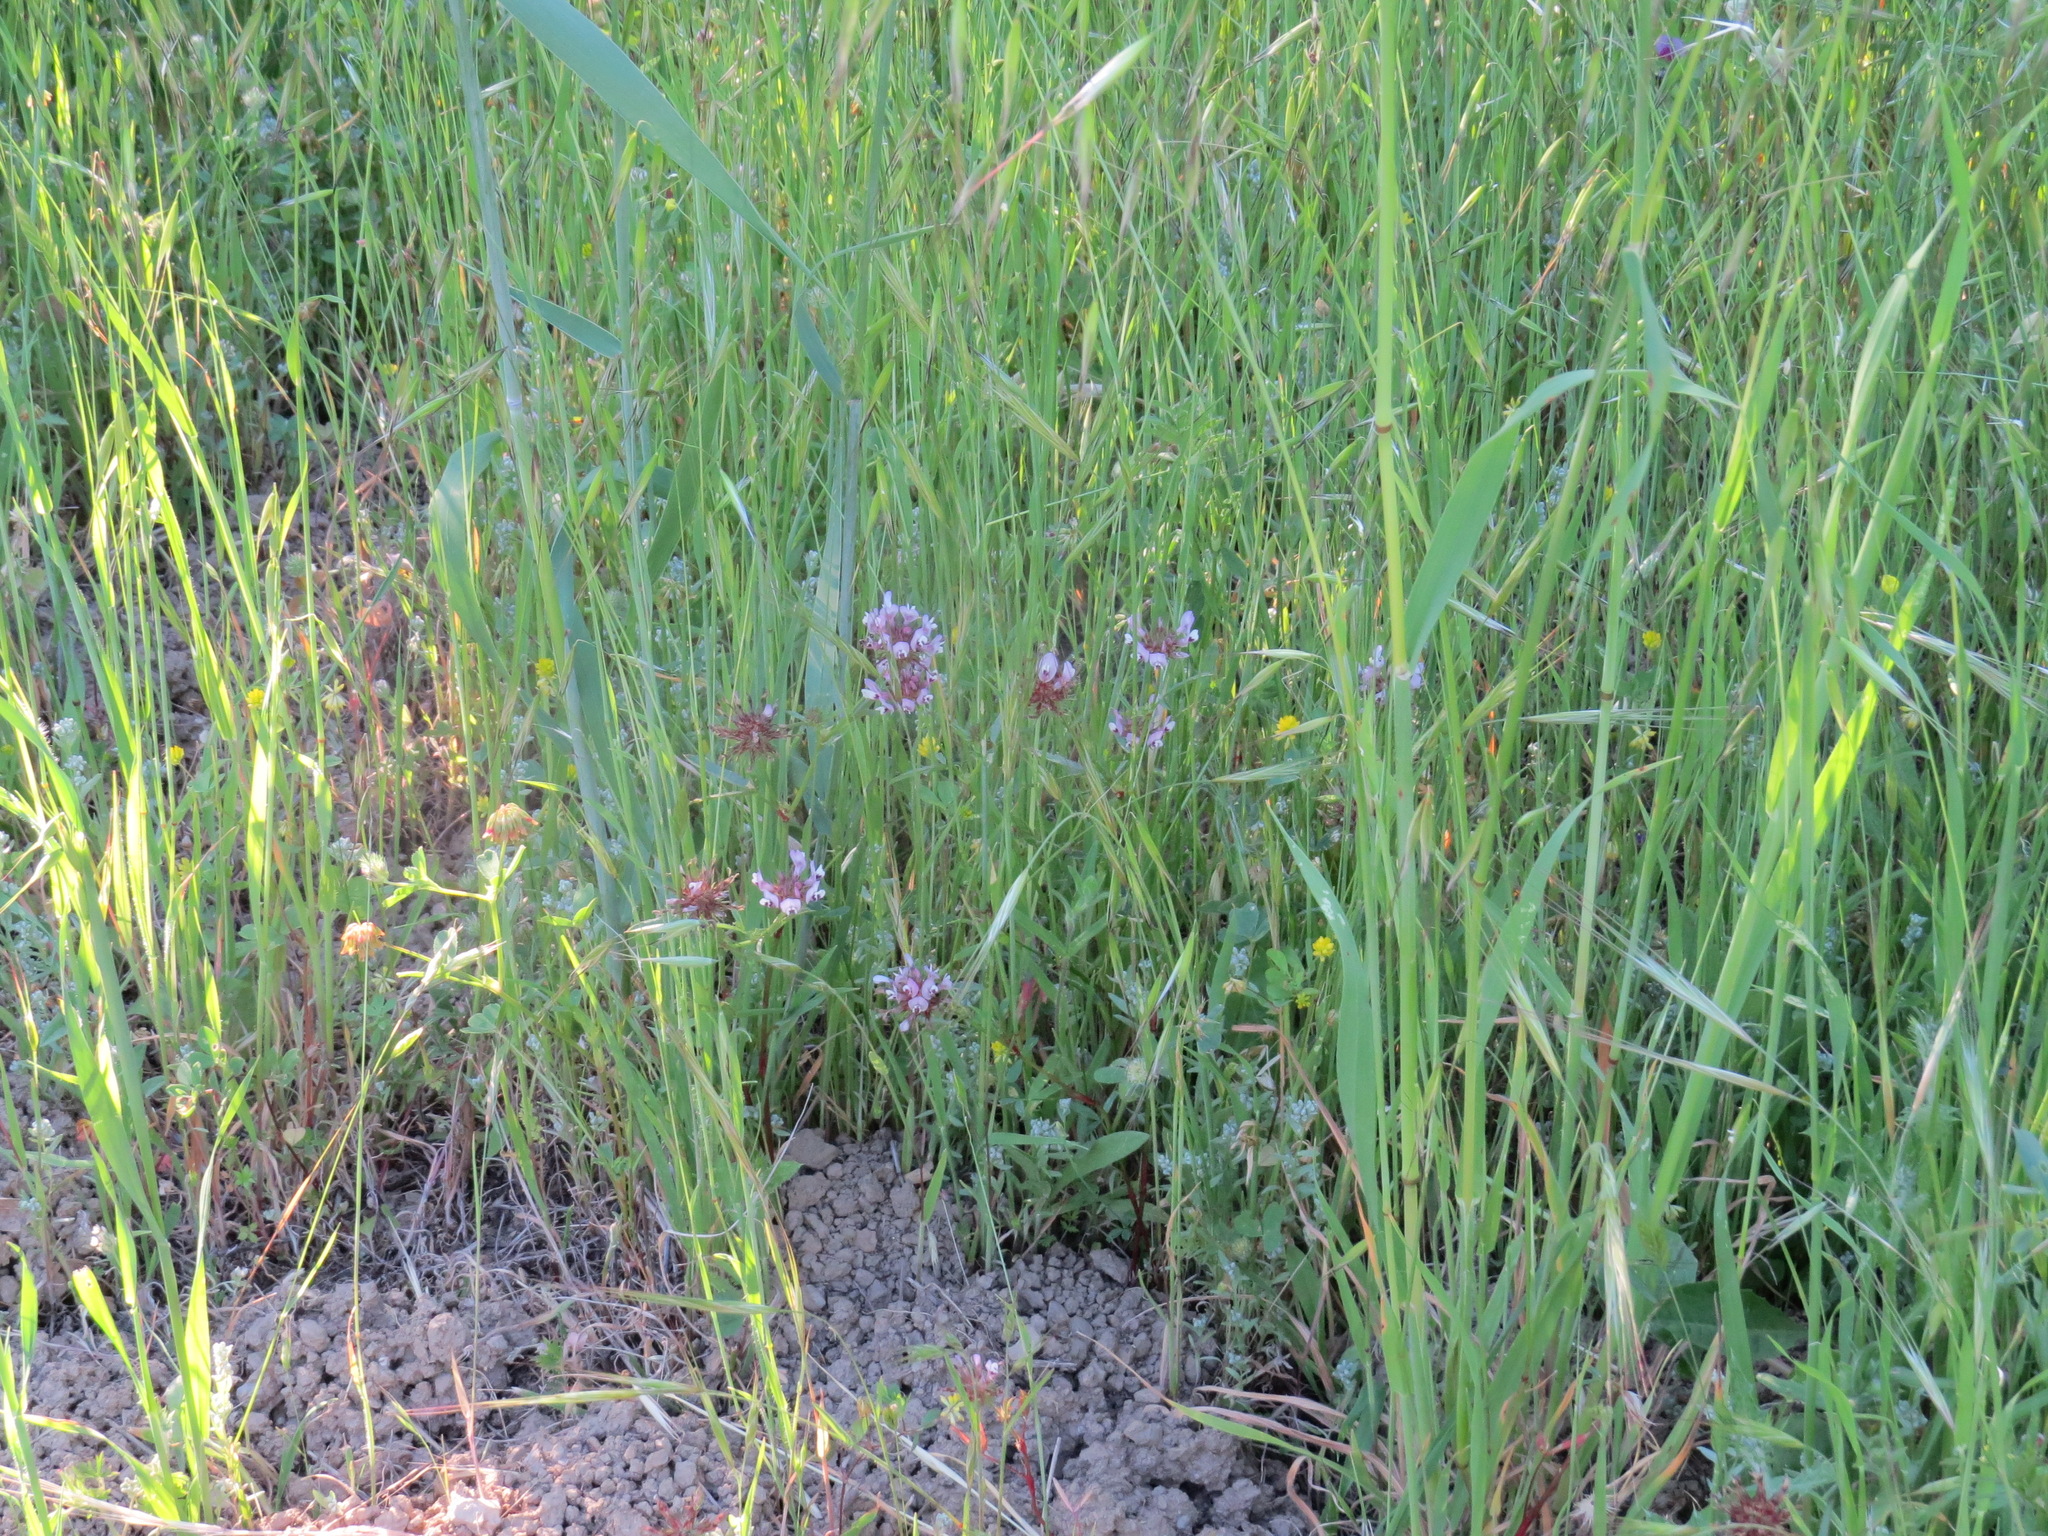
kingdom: Plantae
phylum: Tracheophyta
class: Magnoliopsida
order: Fabales
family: Fabaceae
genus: Trifolium
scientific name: Trifolium willdenovii
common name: Tomcat clover
